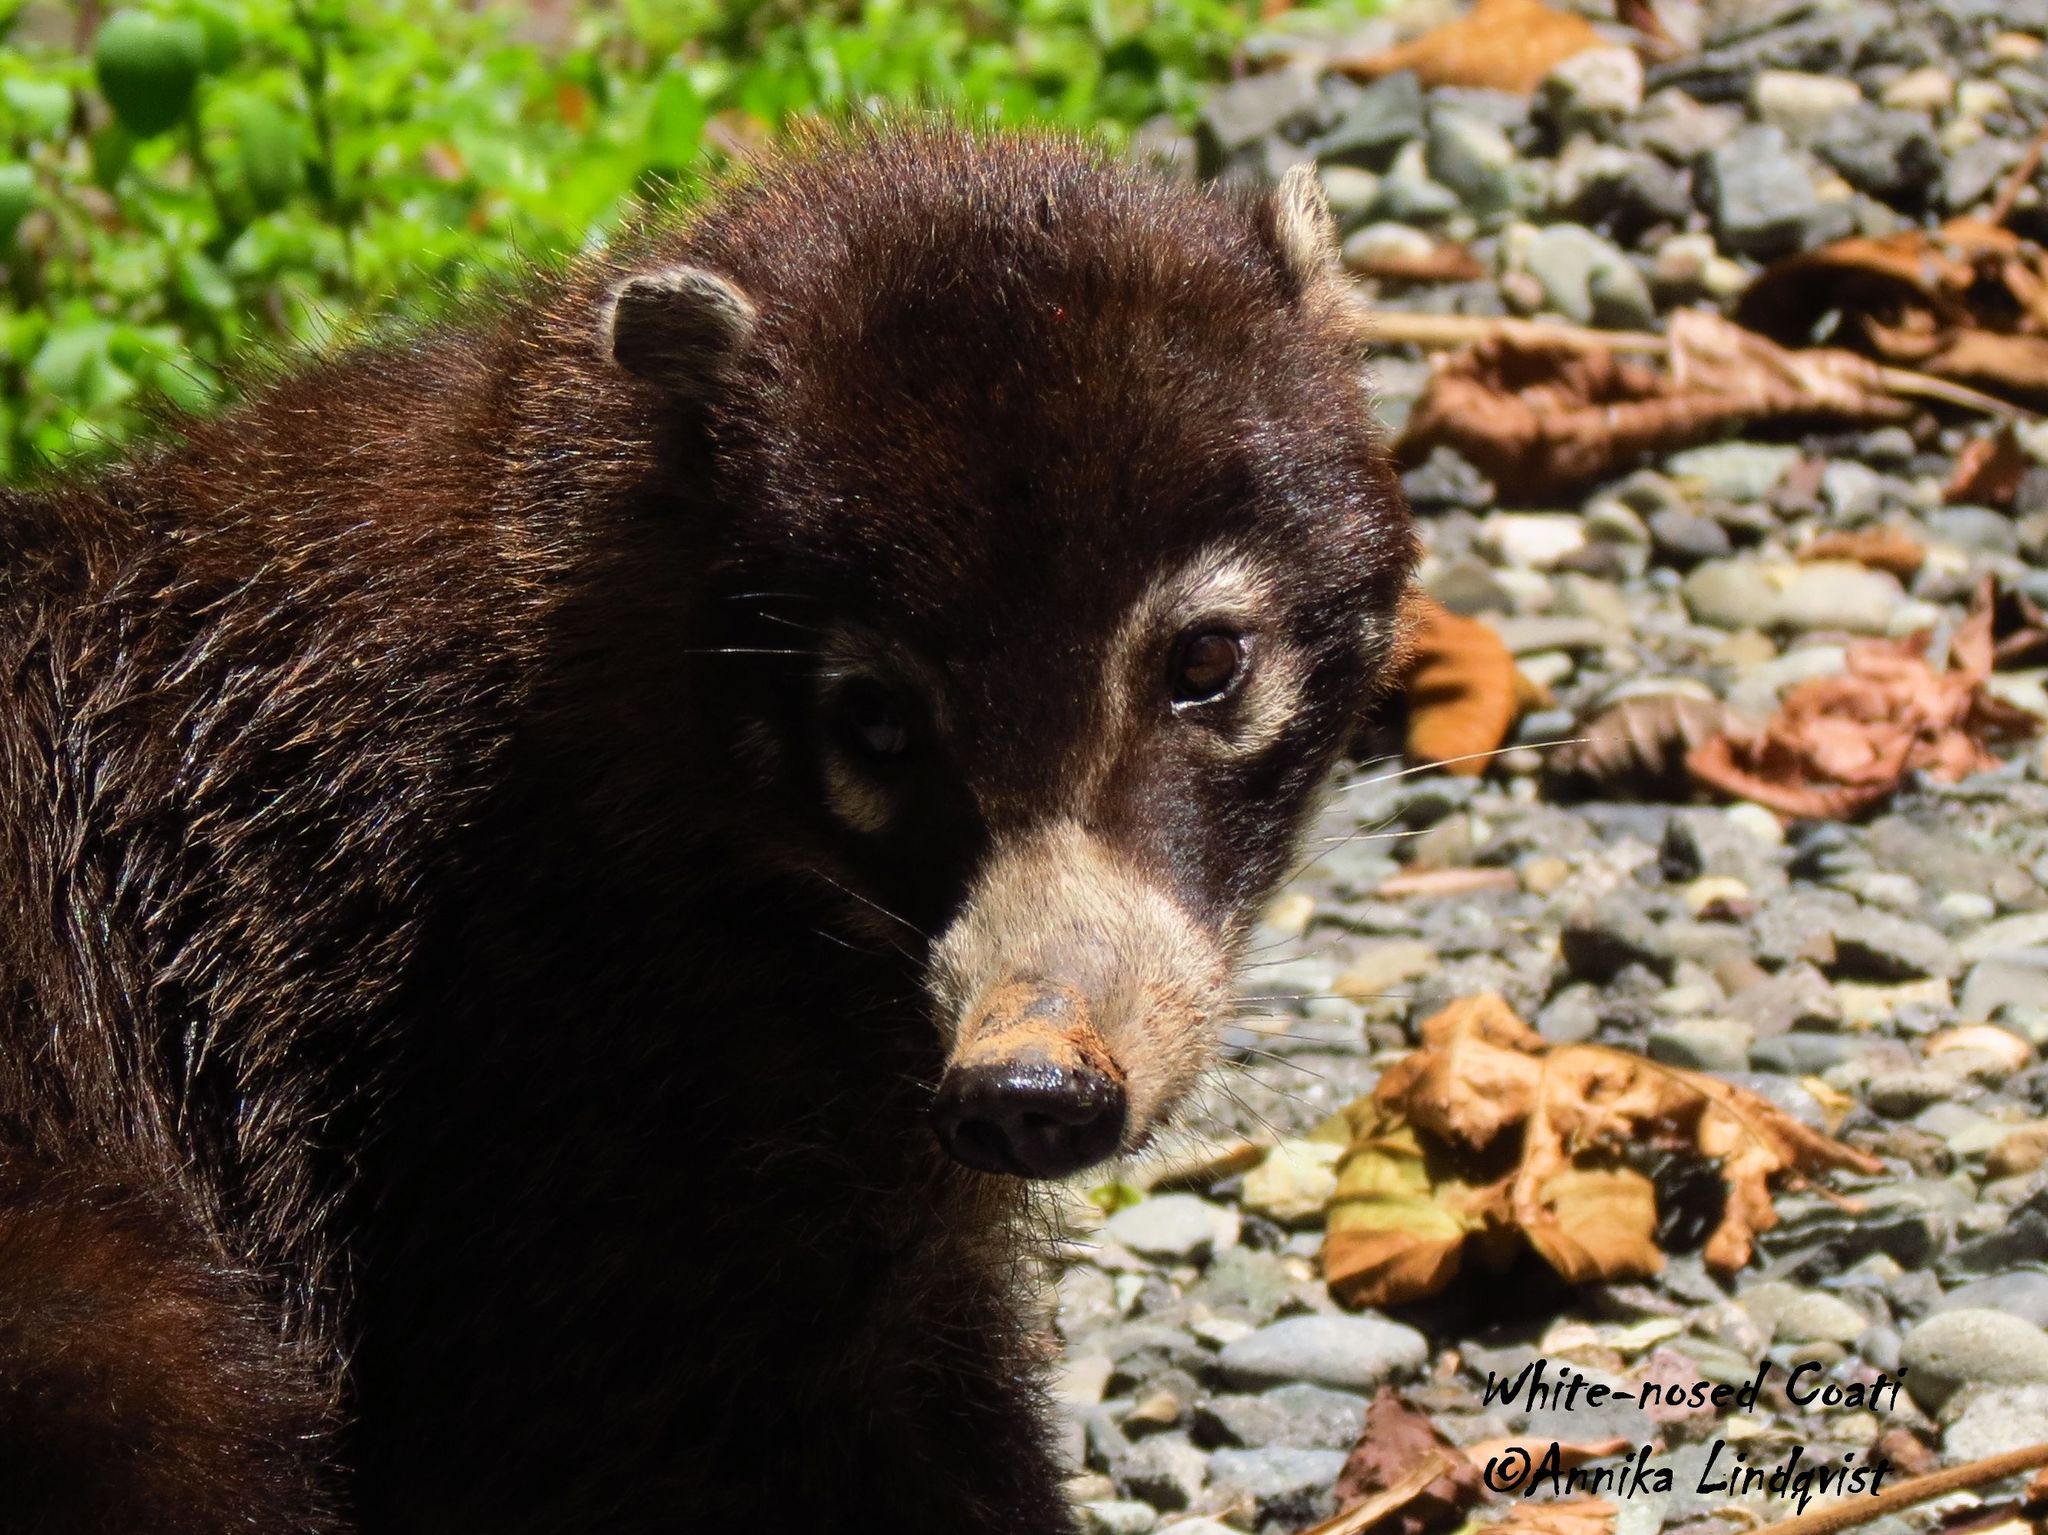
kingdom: Animalia
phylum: Chordata
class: Mammalia
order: Carnivora
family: Procyonidae
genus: Nasua
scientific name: Nasua narica
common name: White-nosed coati
